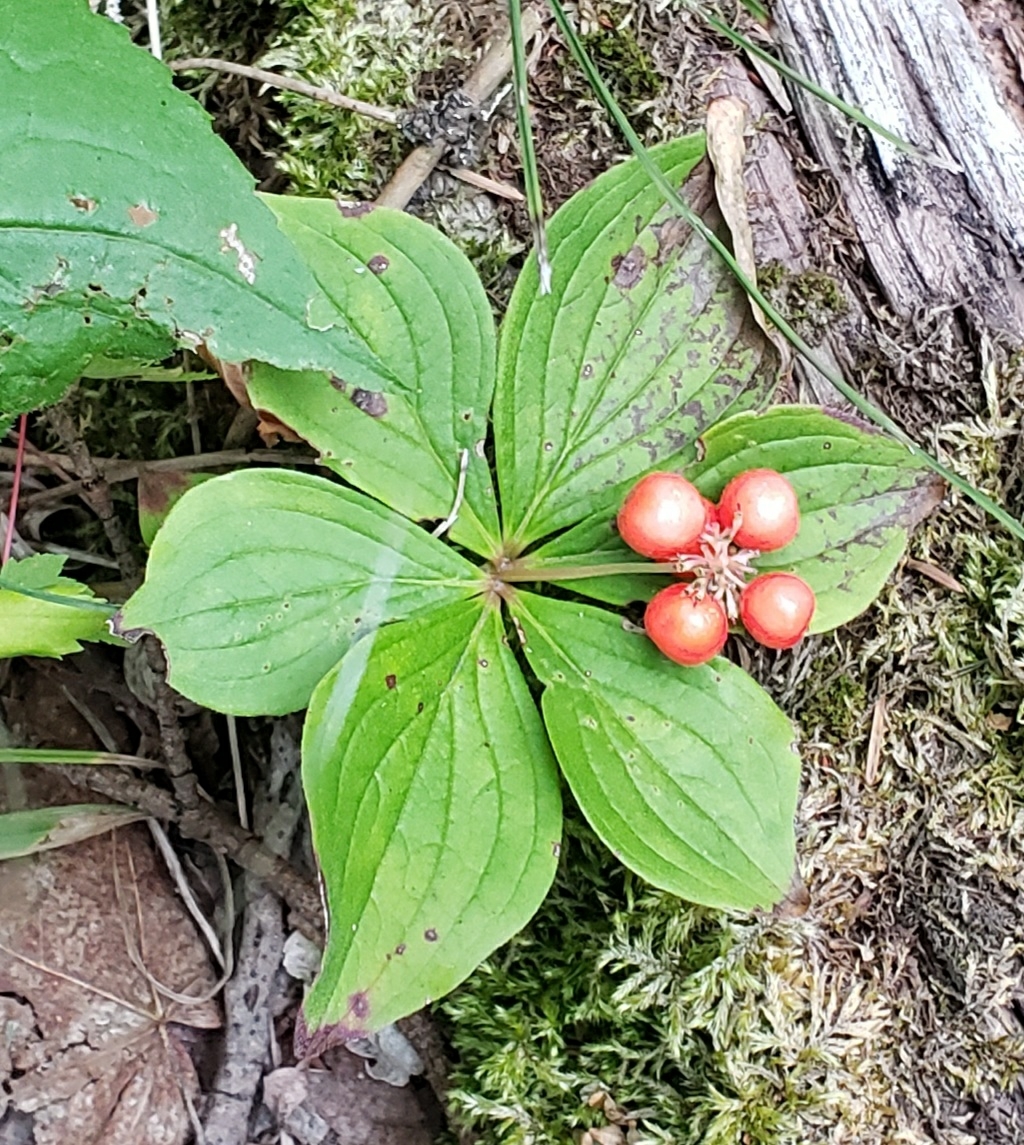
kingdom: Plantae
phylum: Tracheophyta
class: Magnoliopsida
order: Cornales
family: Cornaceae
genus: Cornus
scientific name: Cornus canadensis
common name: Creeping dogwood
